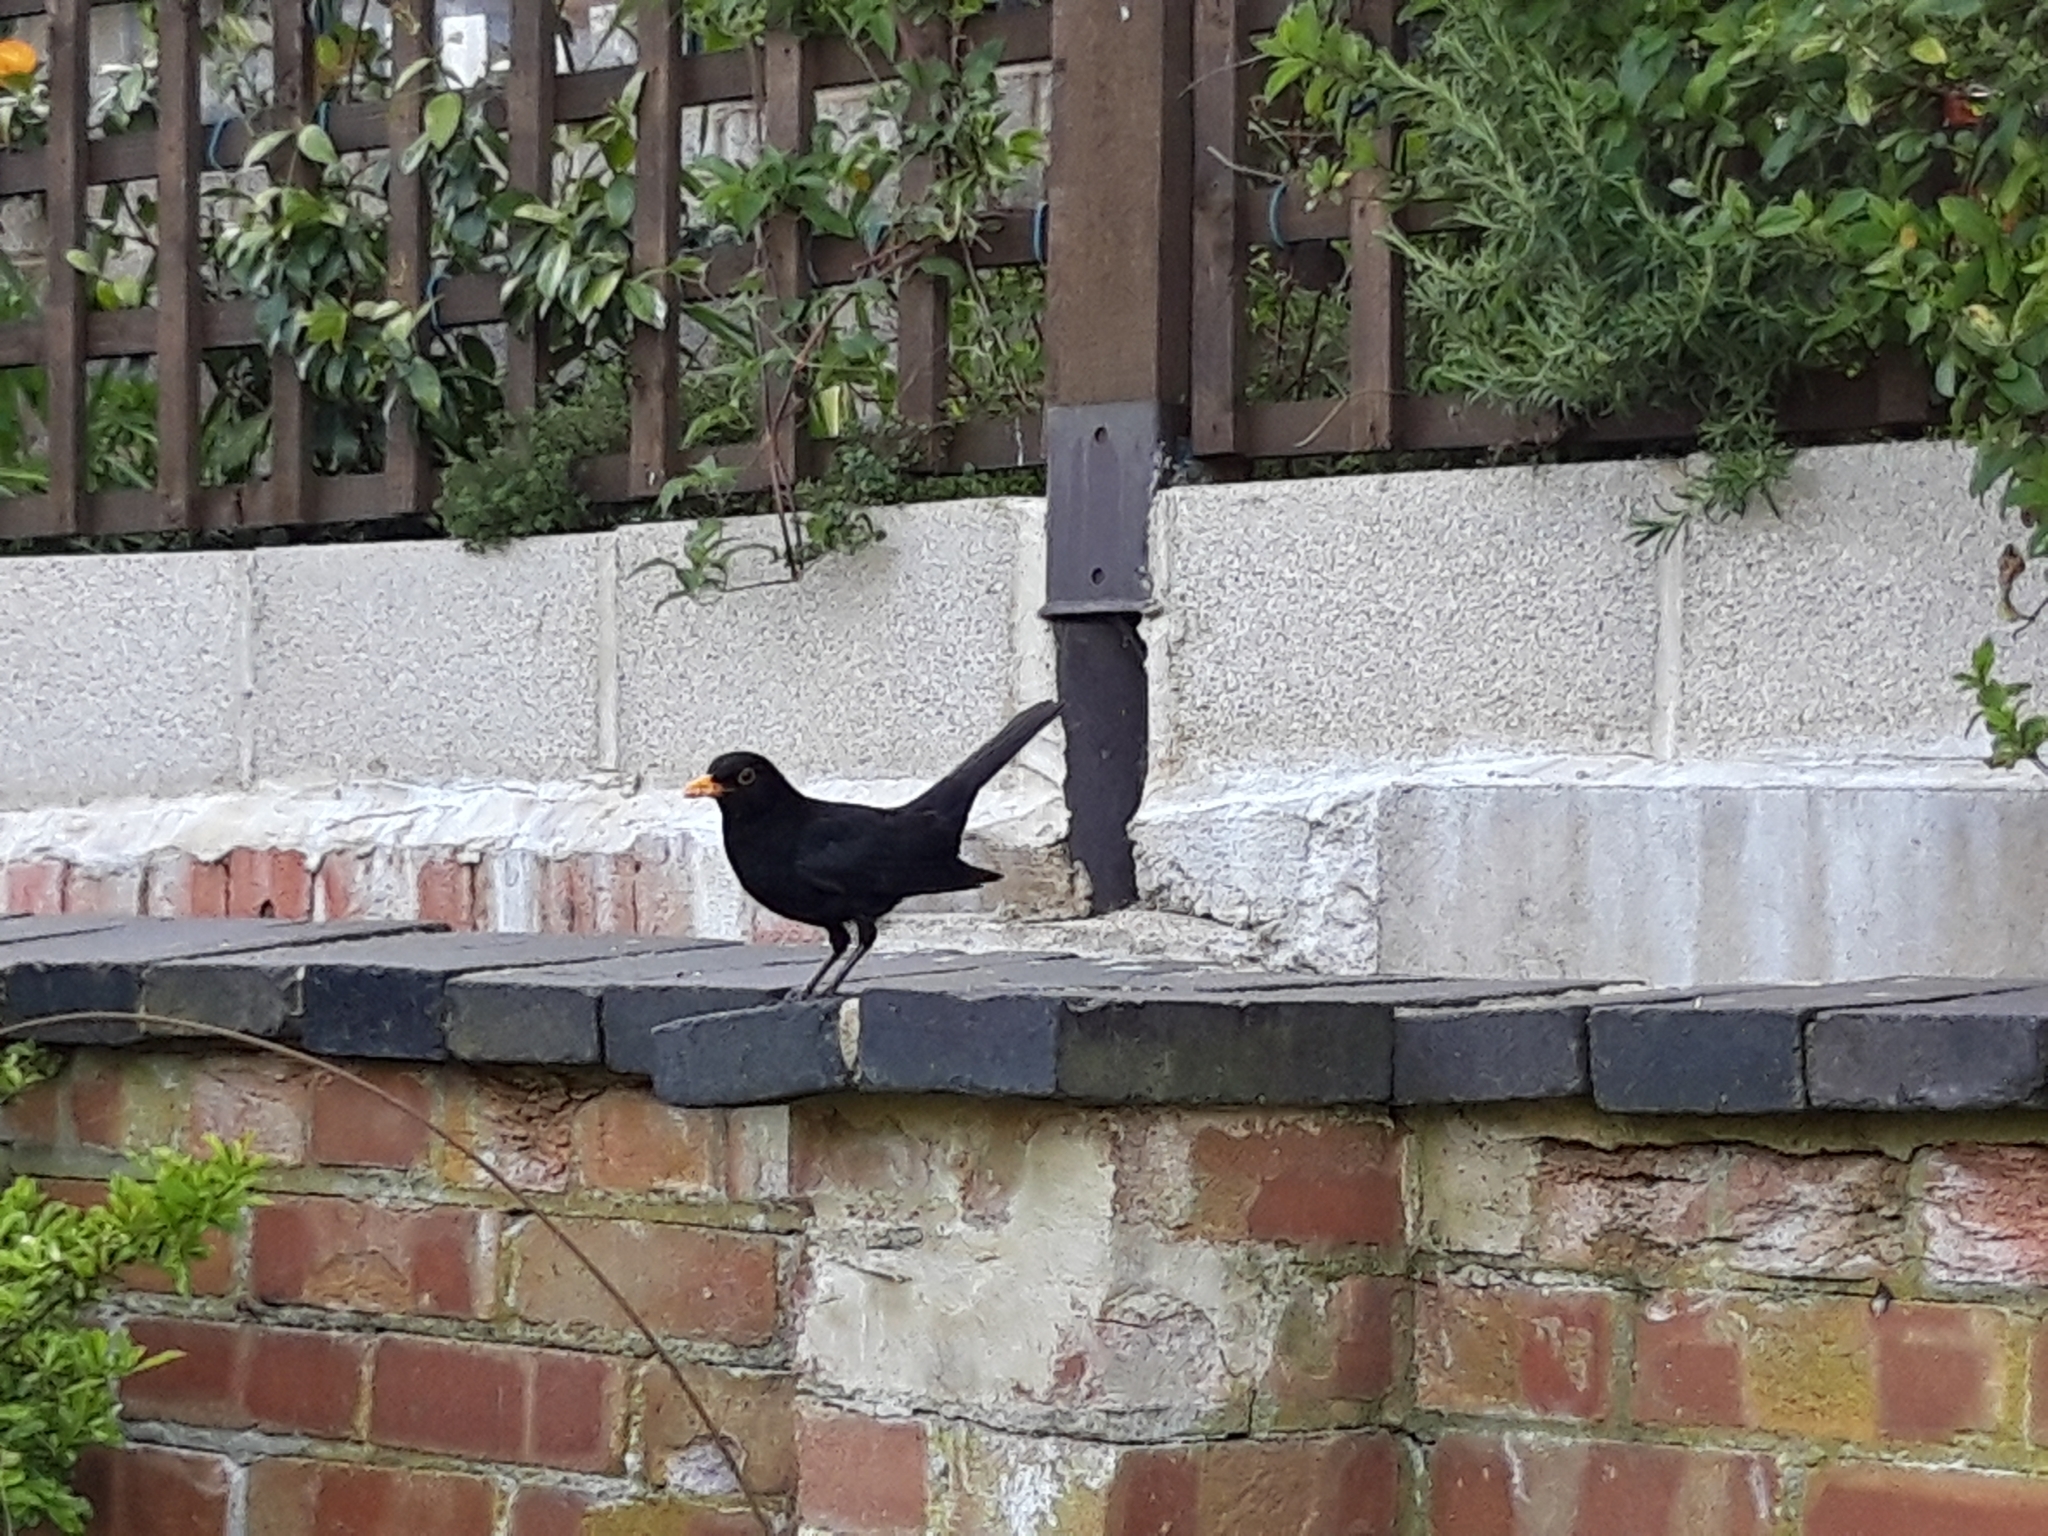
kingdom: Animalia
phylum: Chordata
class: Aves
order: Passeriformes
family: Turdidae
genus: Turdus
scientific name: Turdus merula
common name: Common blackbird
